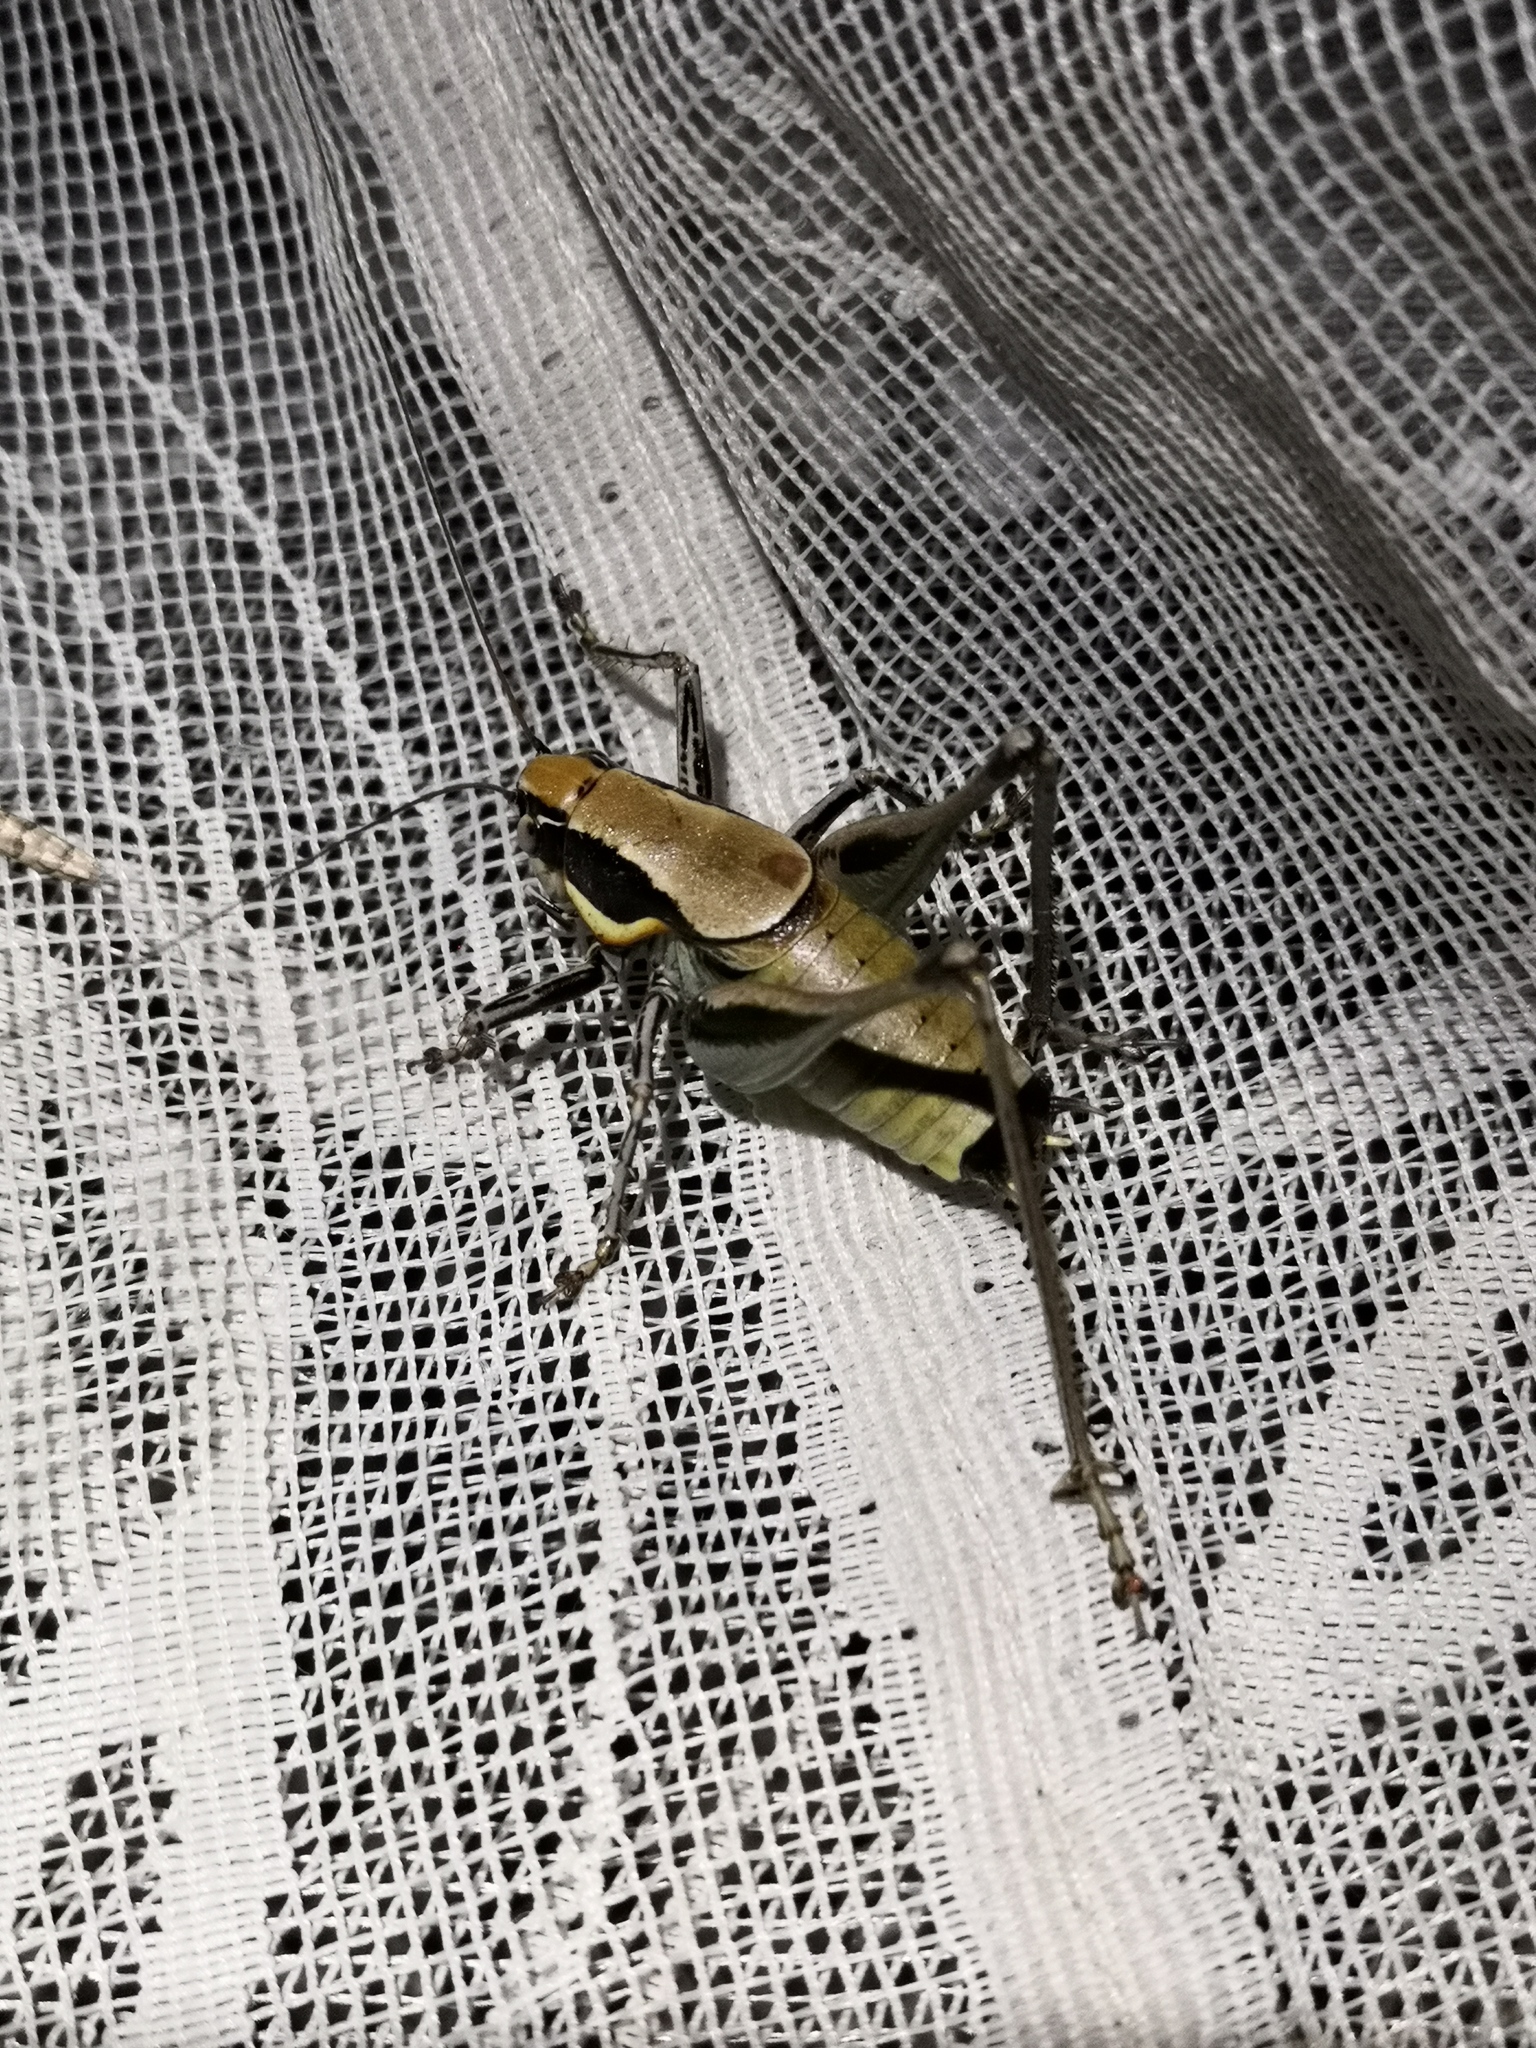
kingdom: Animalia
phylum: Arthropoda
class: Insecta
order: Orthoptera
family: Tettigoniidae
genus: Eupholidoptera
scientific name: Eupholidoptera smyrnensis
